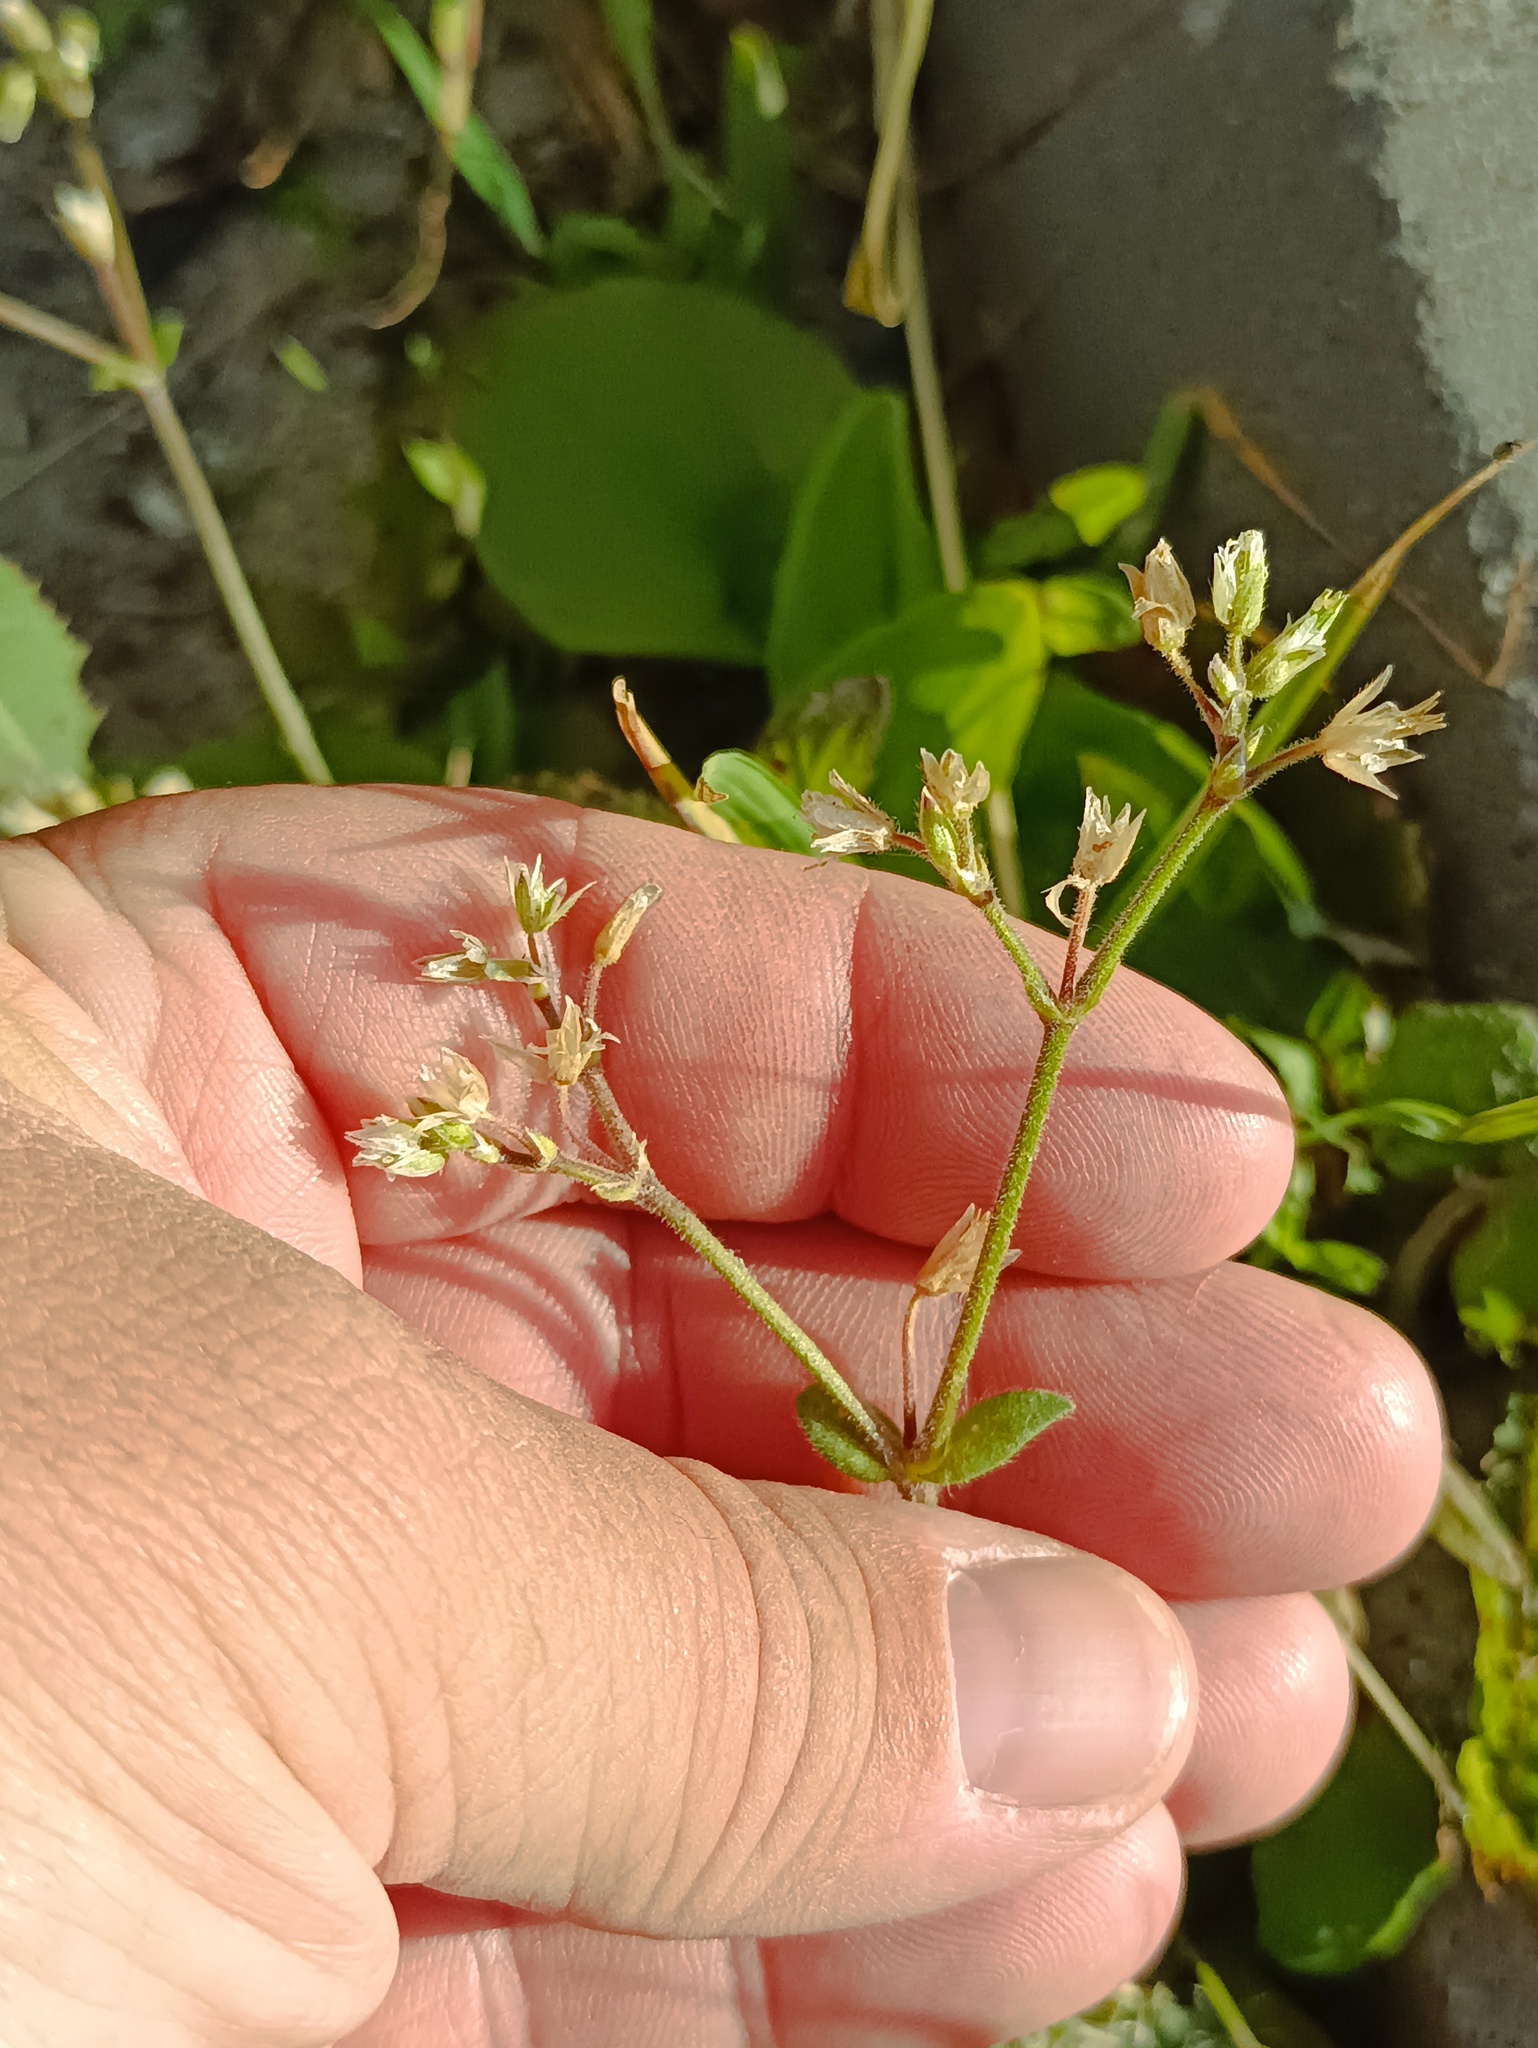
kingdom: Plantae
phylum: Tracheophyta
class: Magnoliopsida
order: Caryophyllales
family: Caryophyllaceae
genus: Cerastium
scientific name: Cerastium holosteoides
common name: Big chickweed
